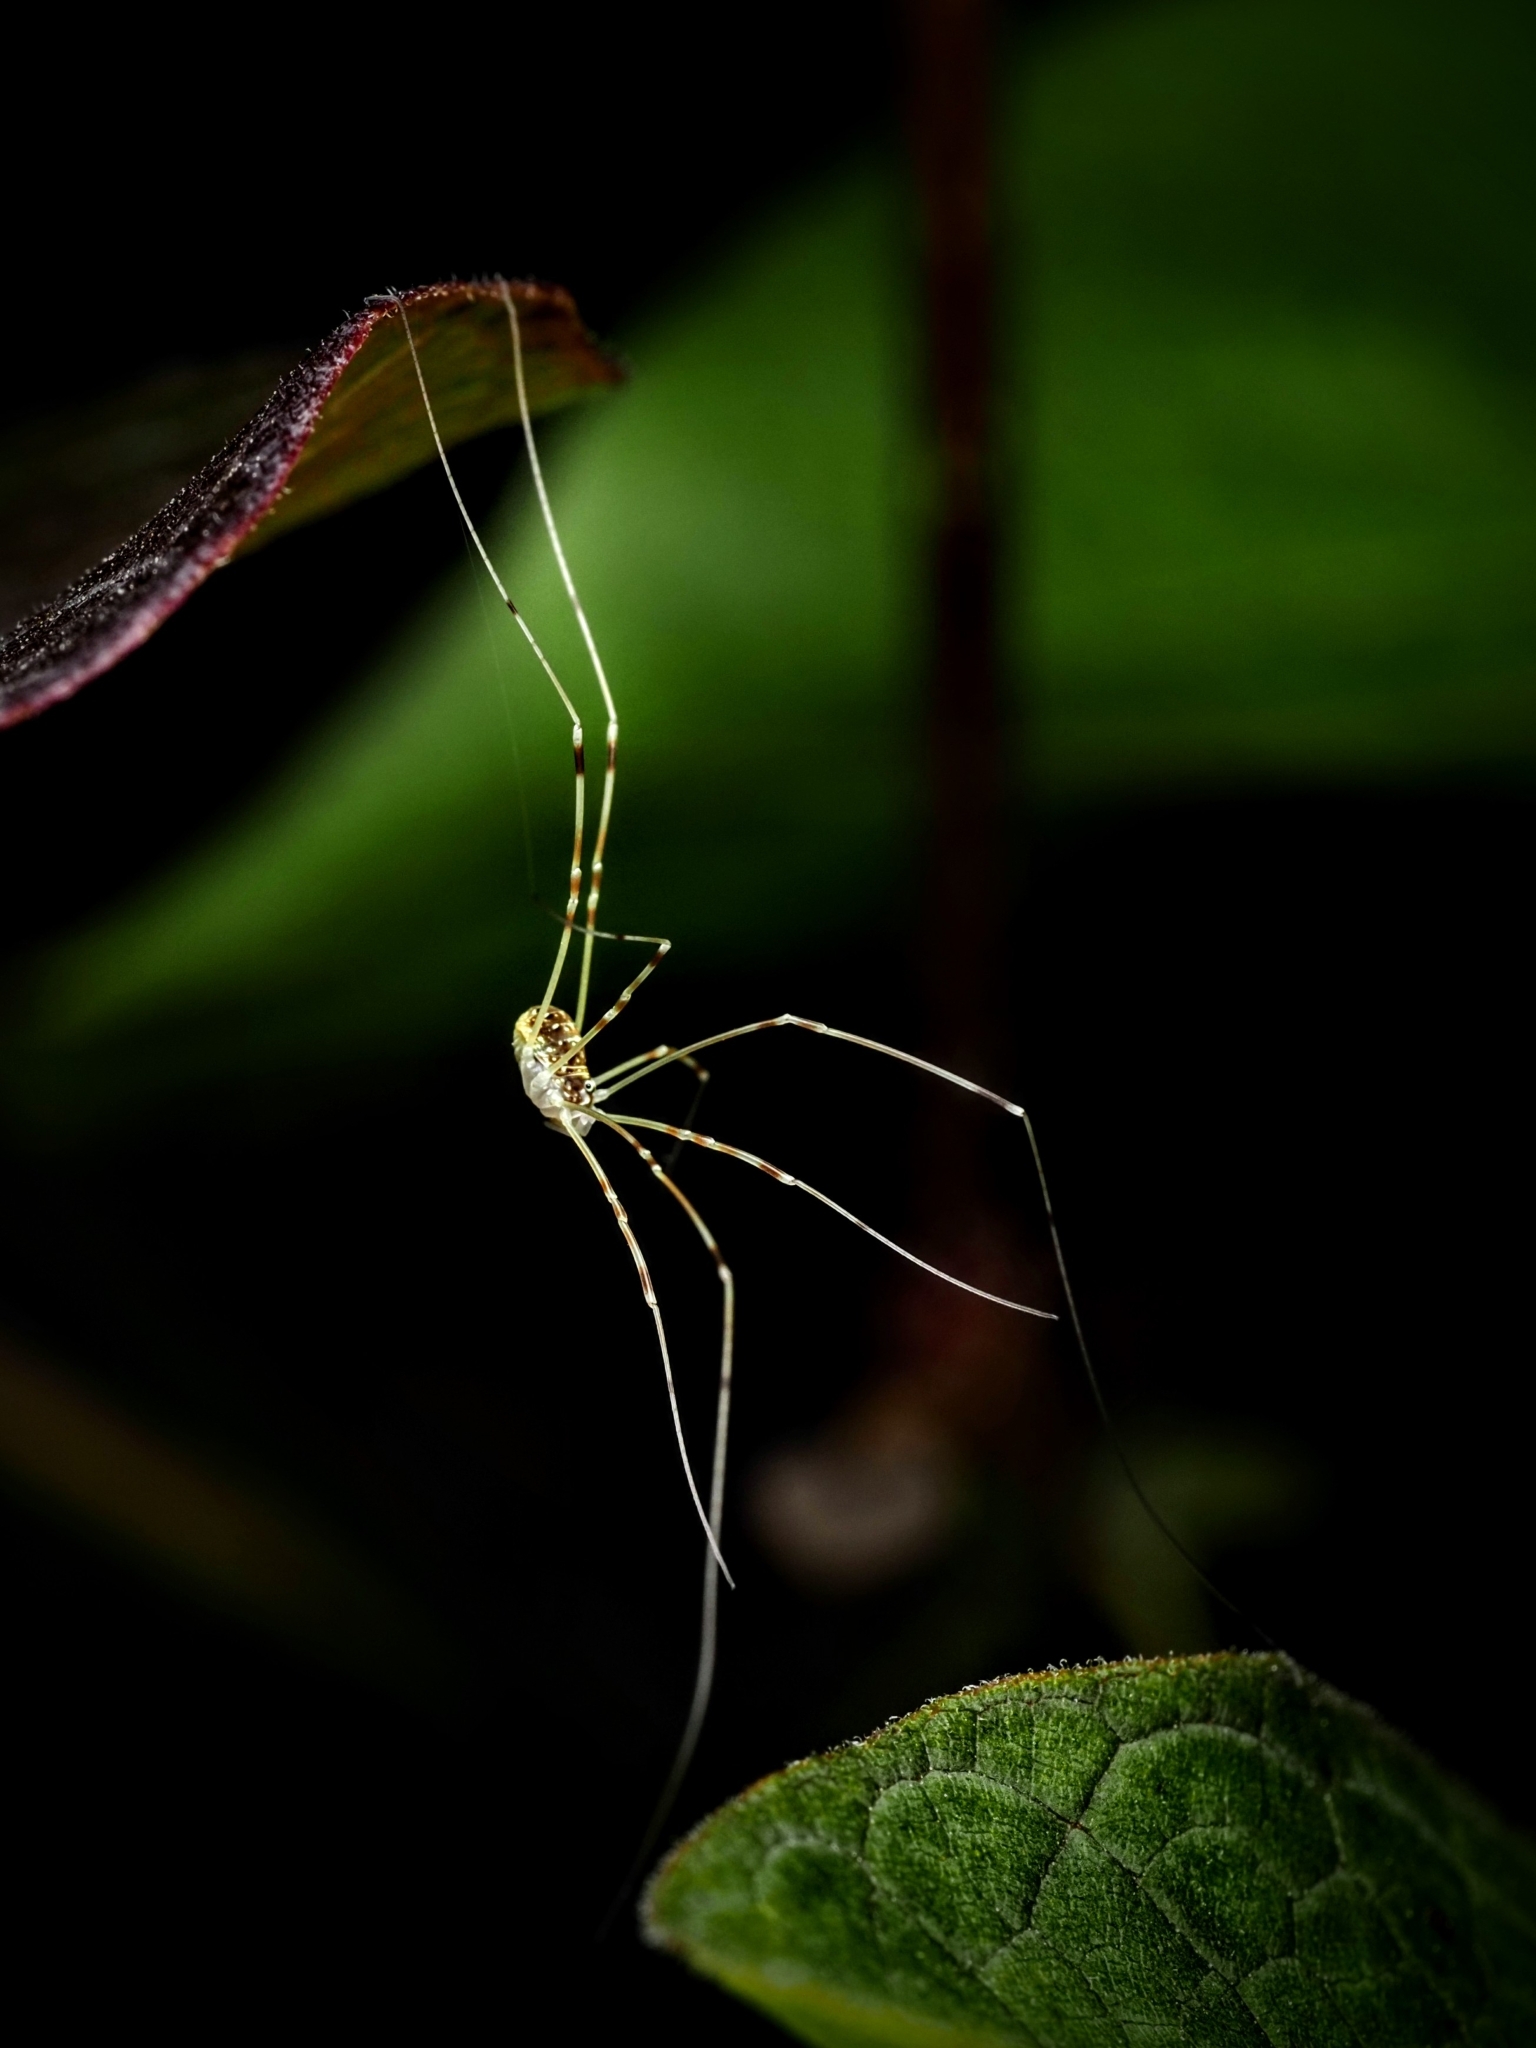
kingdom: Animalia
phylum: Arthropoda
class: Arachnida
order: Opiliones
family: Phalangiidae
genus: Opilio
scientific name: Opilio canestrinii
